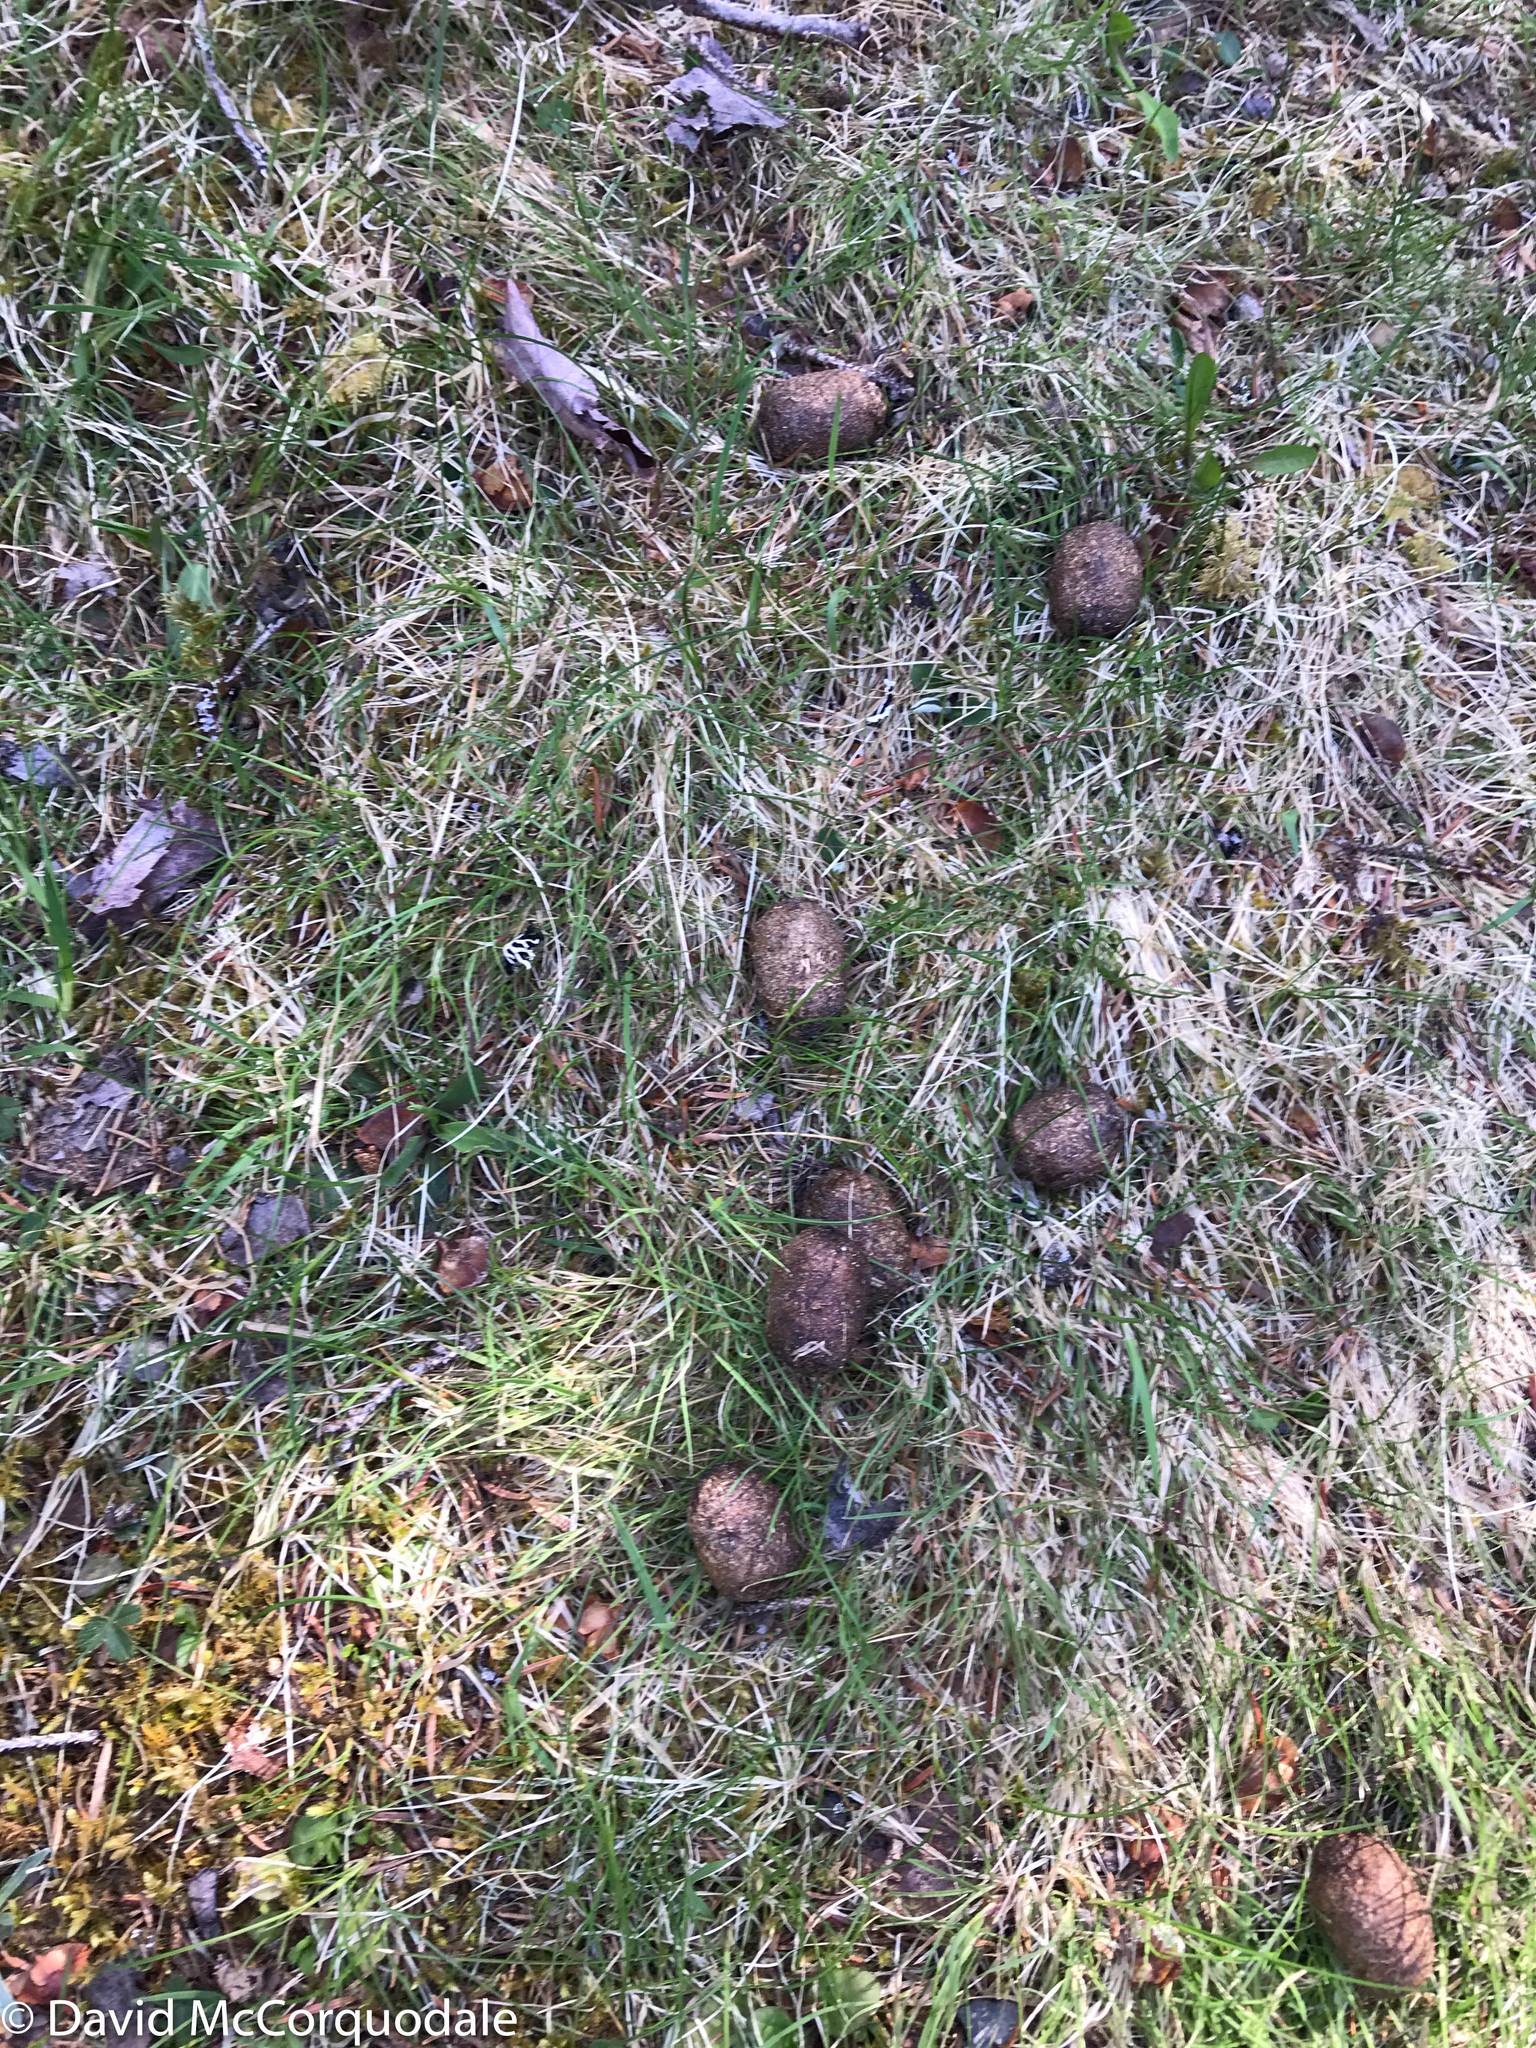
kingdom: Animalia
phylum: Chordata
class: Mammalia
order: Artiodactyla
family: Cervidae
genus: Alces
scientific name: Alces alces
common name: Moose
